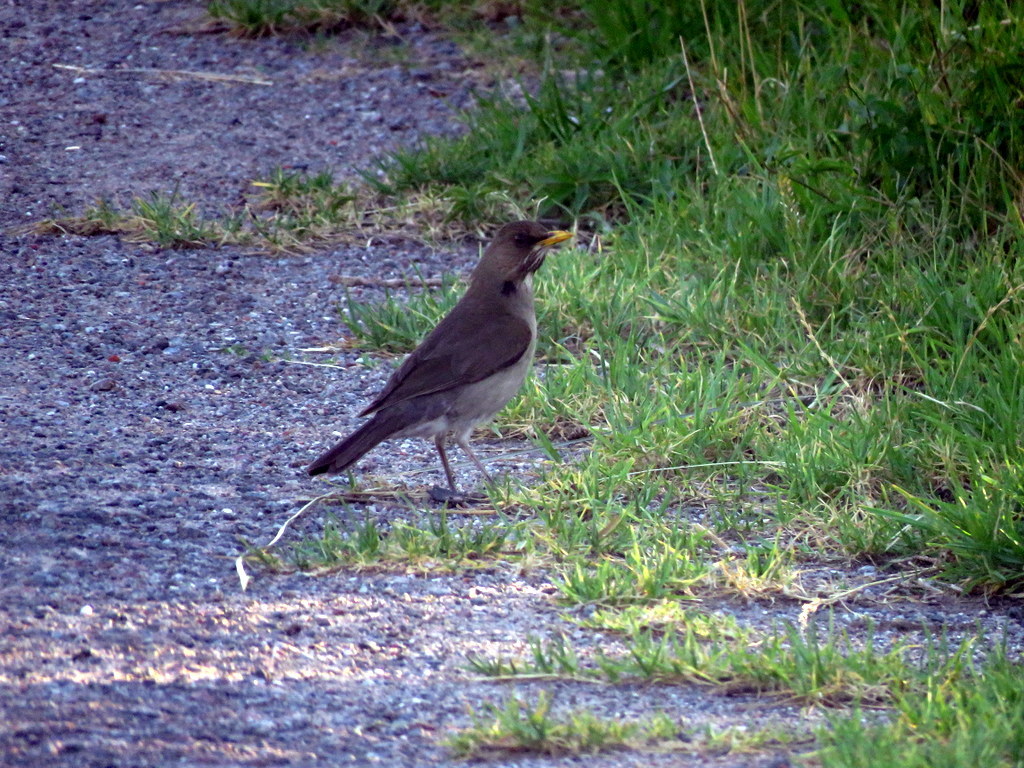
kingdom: Animalia
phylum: Chordata
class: Aves
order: Passeriformes
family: Turdidae
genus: Turdus
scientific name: Turdus amaurochalinus
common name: Creamy-bellied thrush
